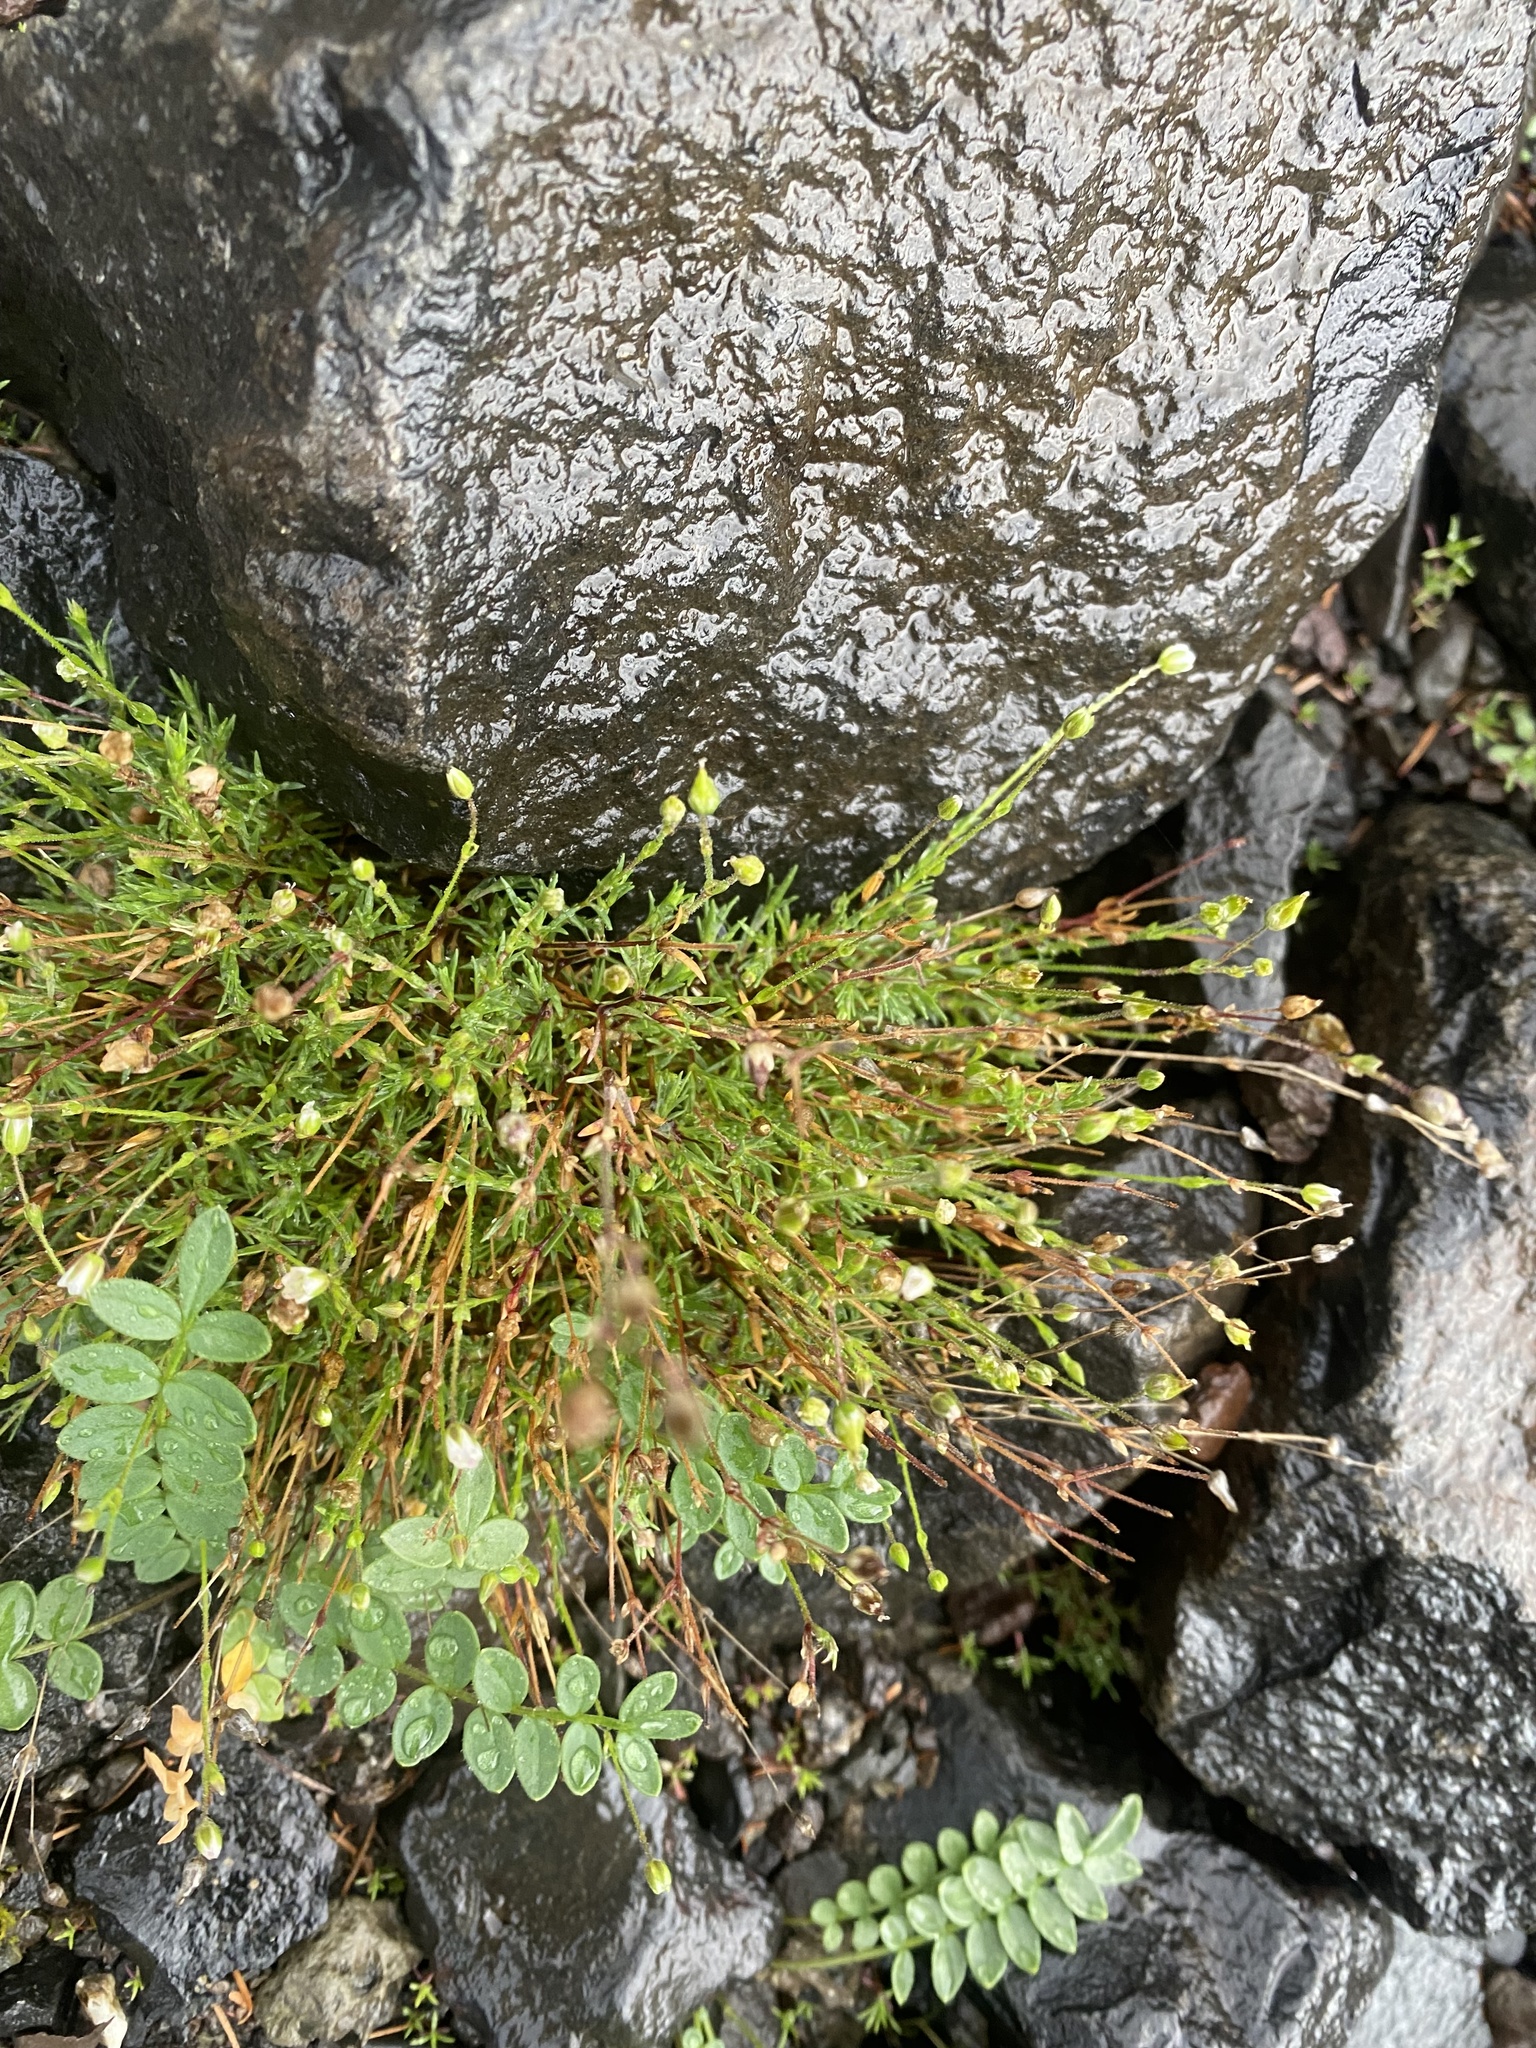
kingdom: Plantae
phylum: Tracheophyta
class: Magnoliopsida
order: Caryophyllales
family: Caryophyllaceae
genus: Sabulina
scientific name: Sabulina rubella
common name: Beautiful sandwort
